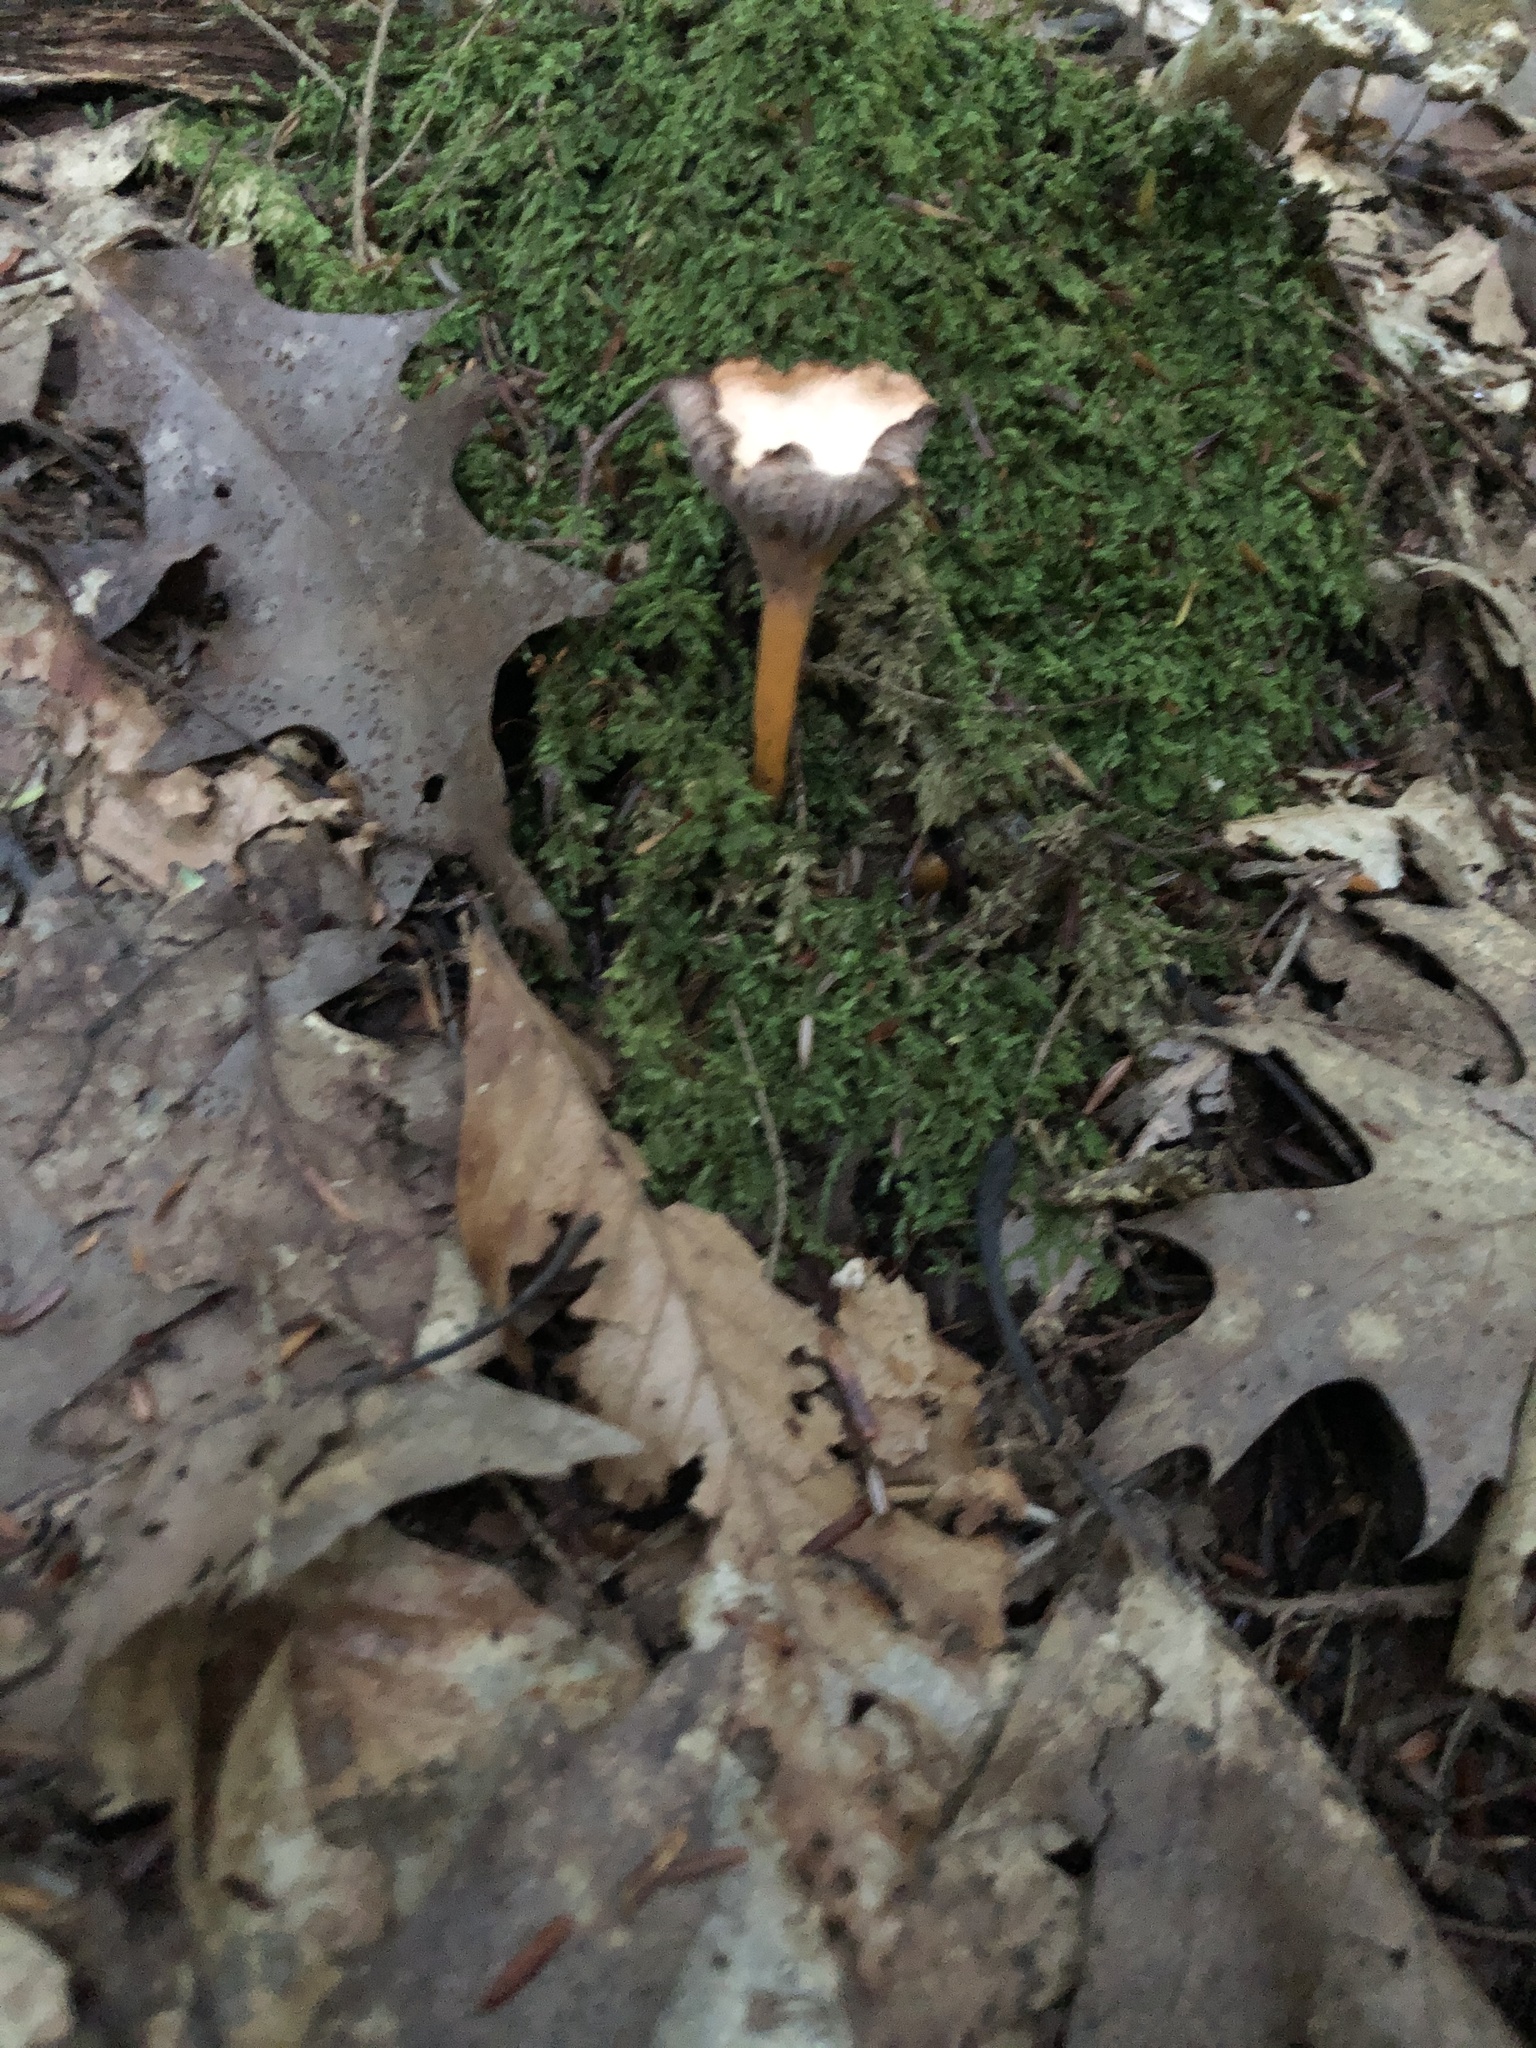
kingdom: Fungi
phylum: Basidiomycota
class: Agaricomycetes
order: Cantharellales
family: Hydnaceae
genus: Craterellus
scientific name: Craterellus tubaeformis
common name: Yellowfoot
